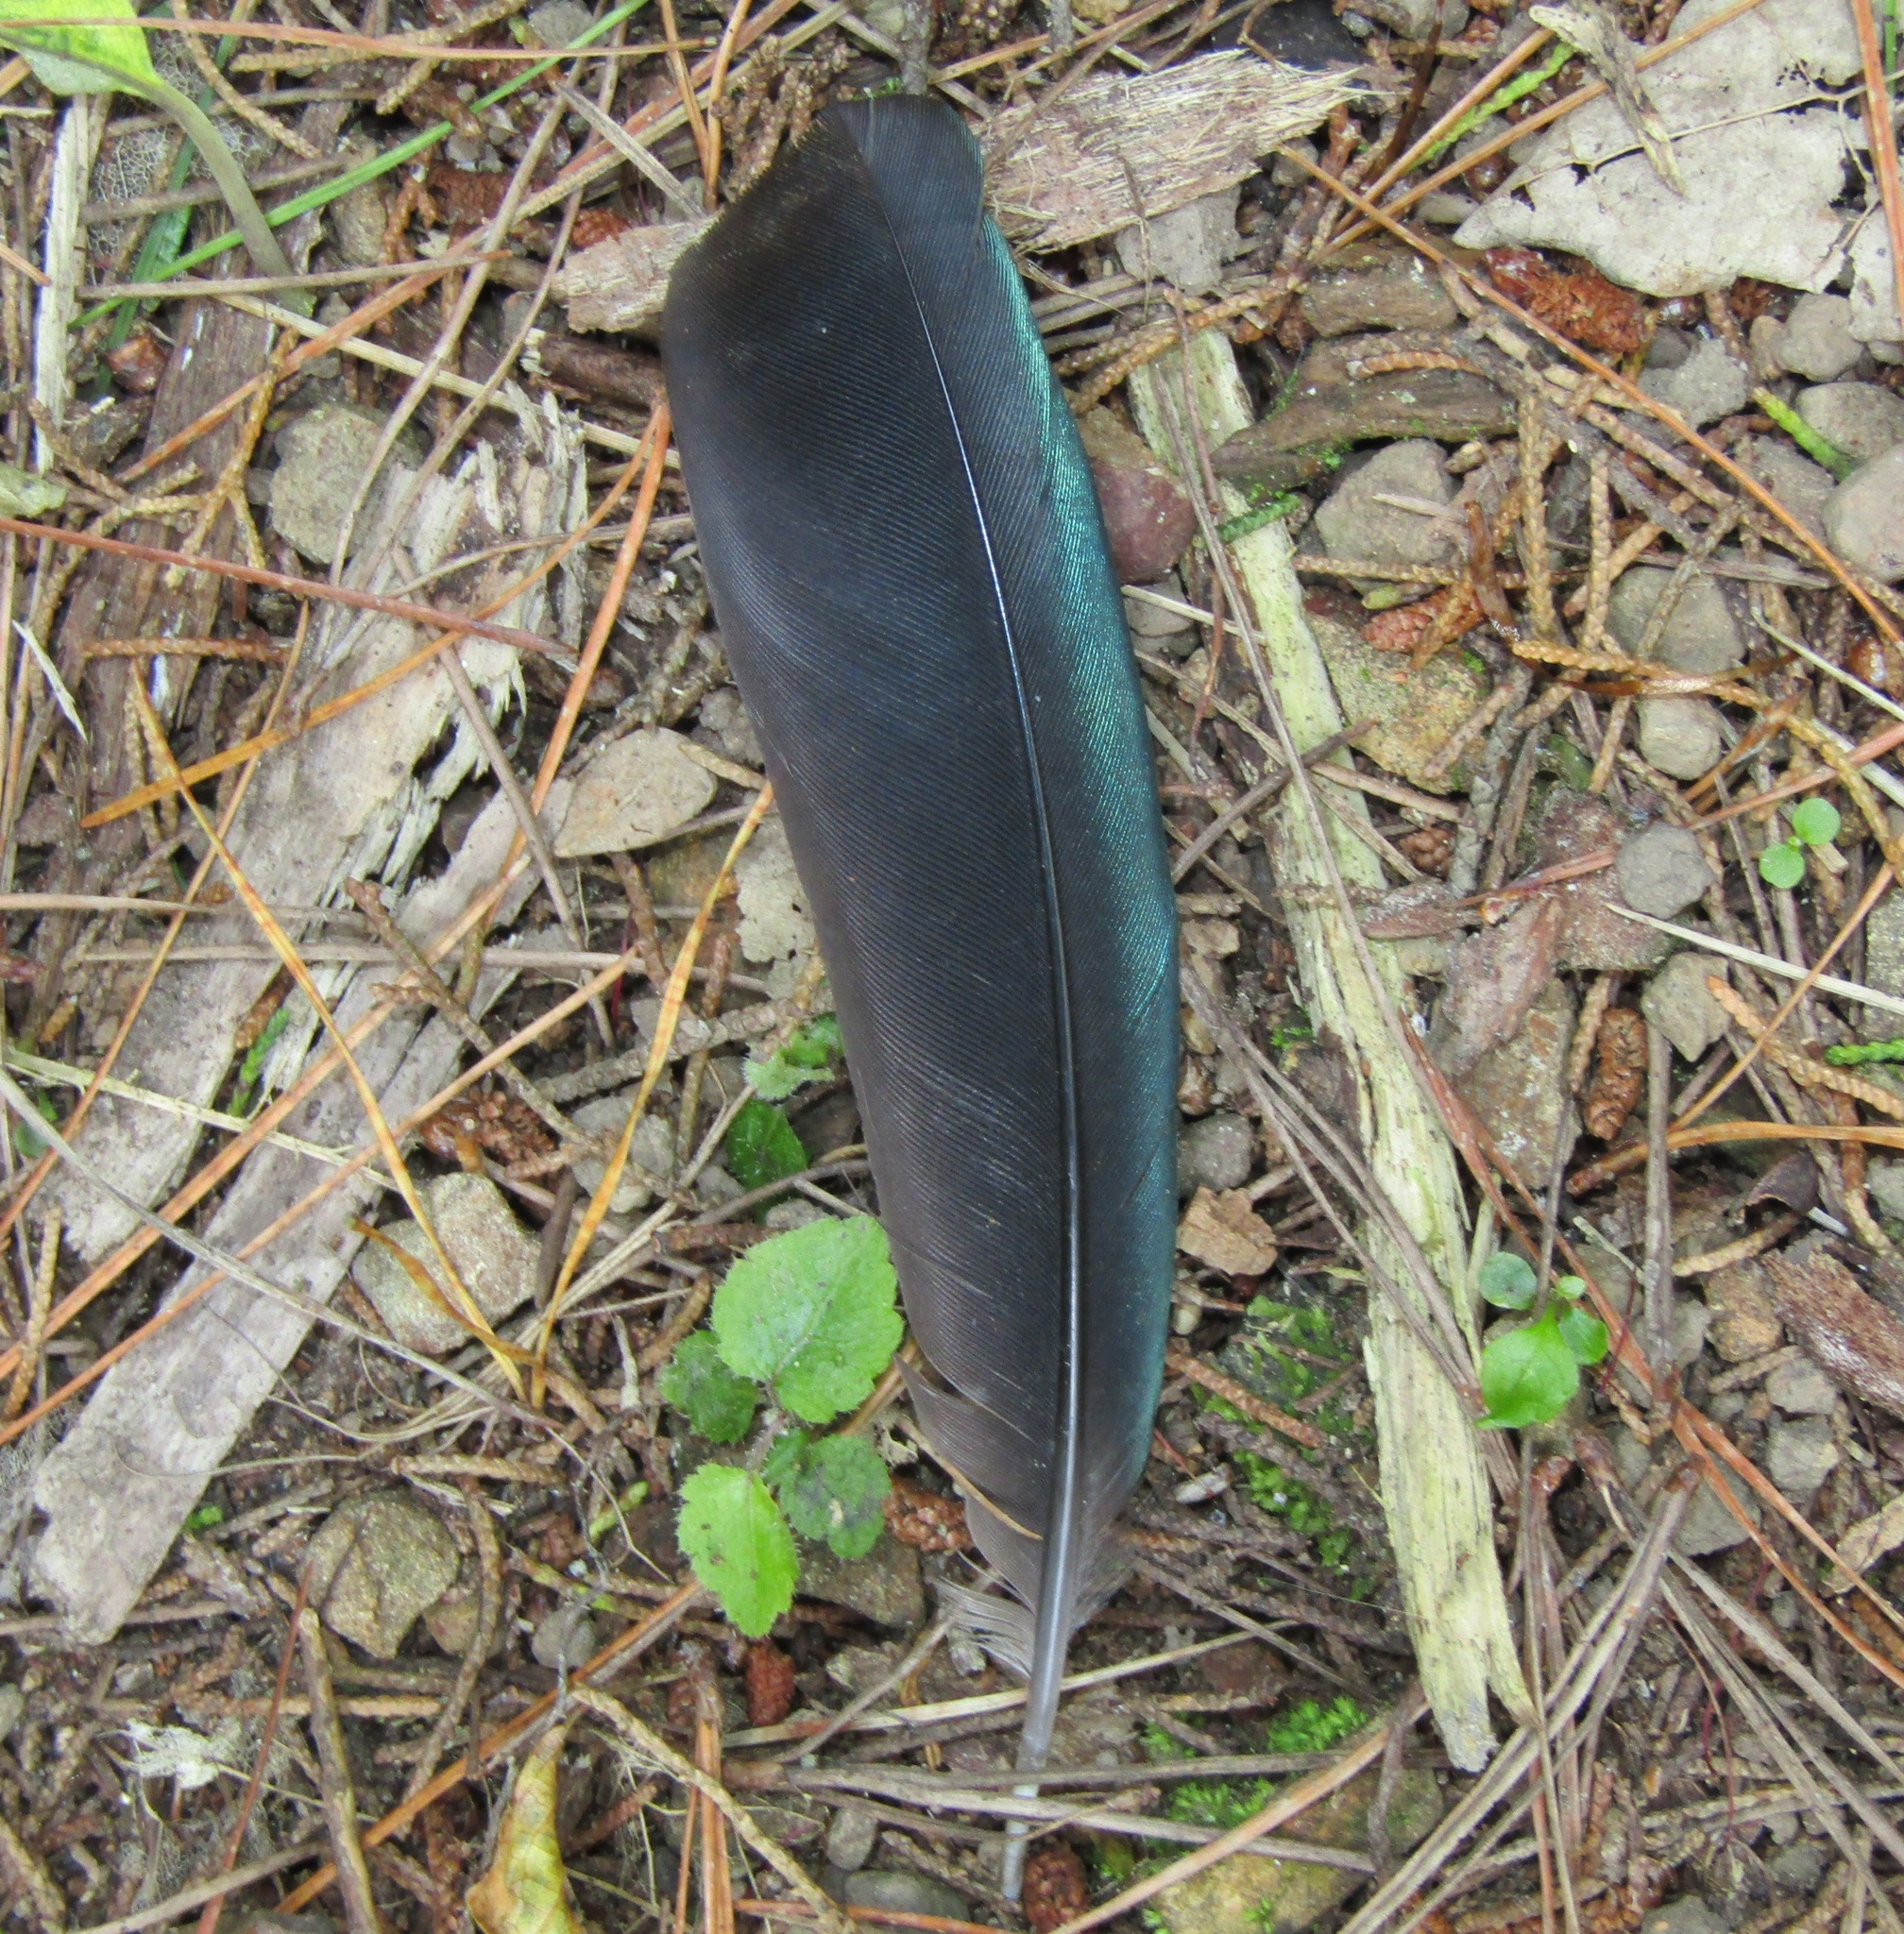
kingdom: Animalia
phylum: Chordata
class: Aves
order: Passeriformes
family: Meliphagidae
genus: Prosthemadera
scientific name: Prosthemadera novaeseelandiae
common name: Tui
